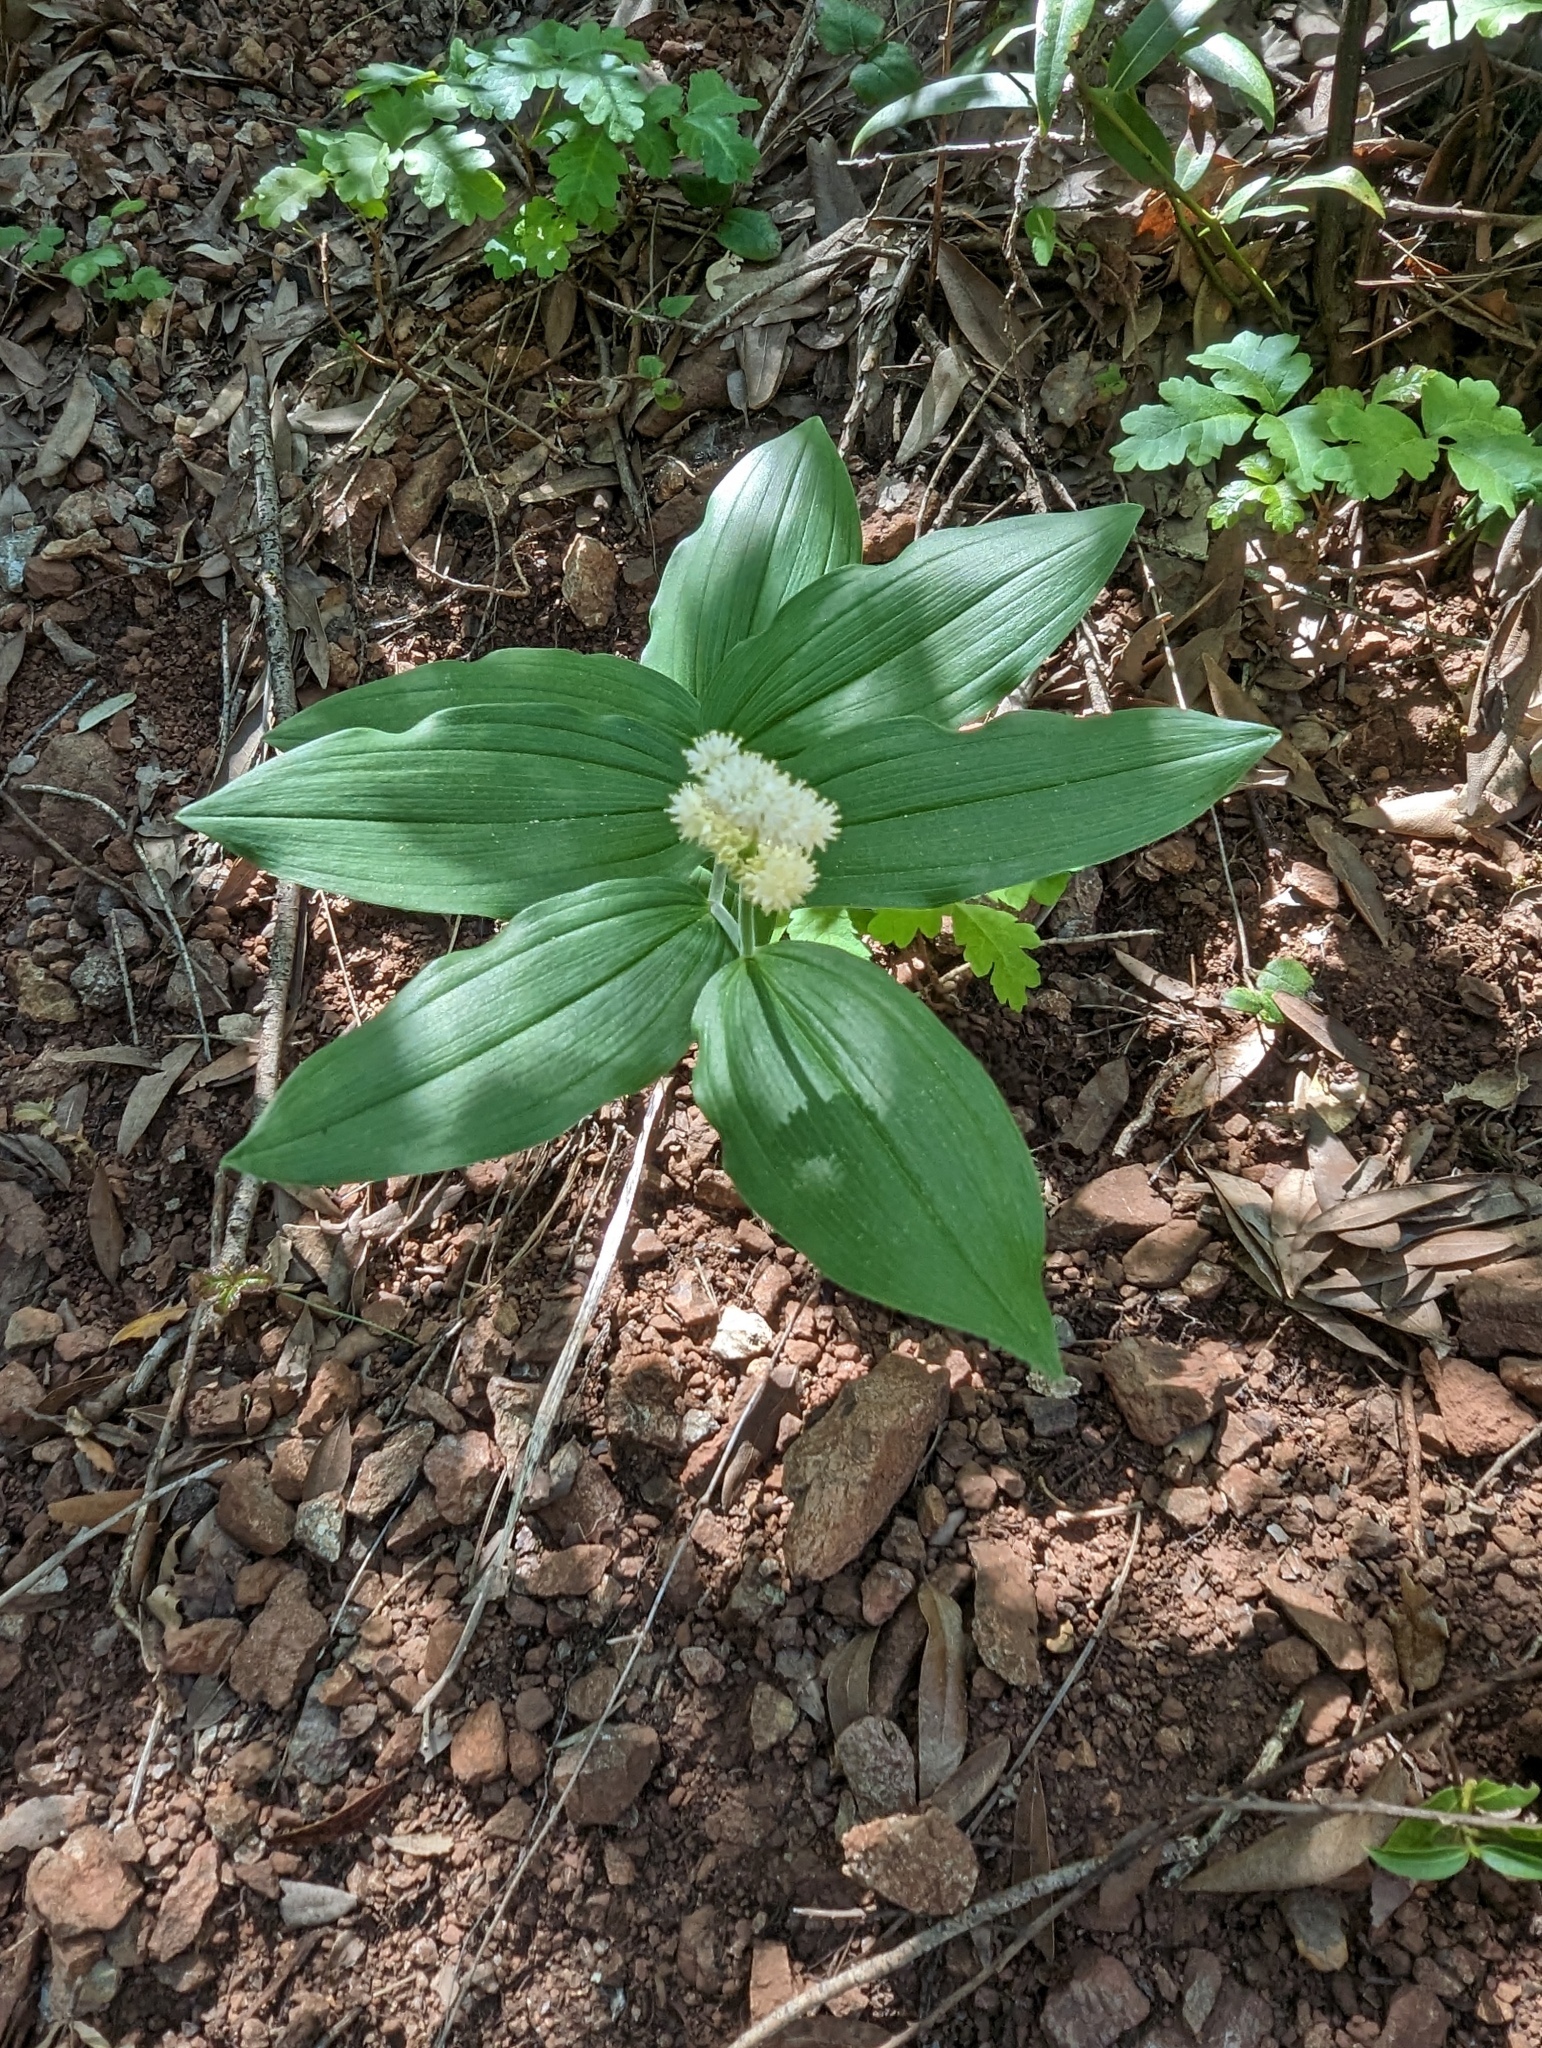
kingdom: Plantae
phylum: Tracheophyta
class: Liliopsida
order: Asparagales
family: Asparagaceae
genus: Maianthemum
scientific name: Maianthemum racemosum
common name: False spikenard
